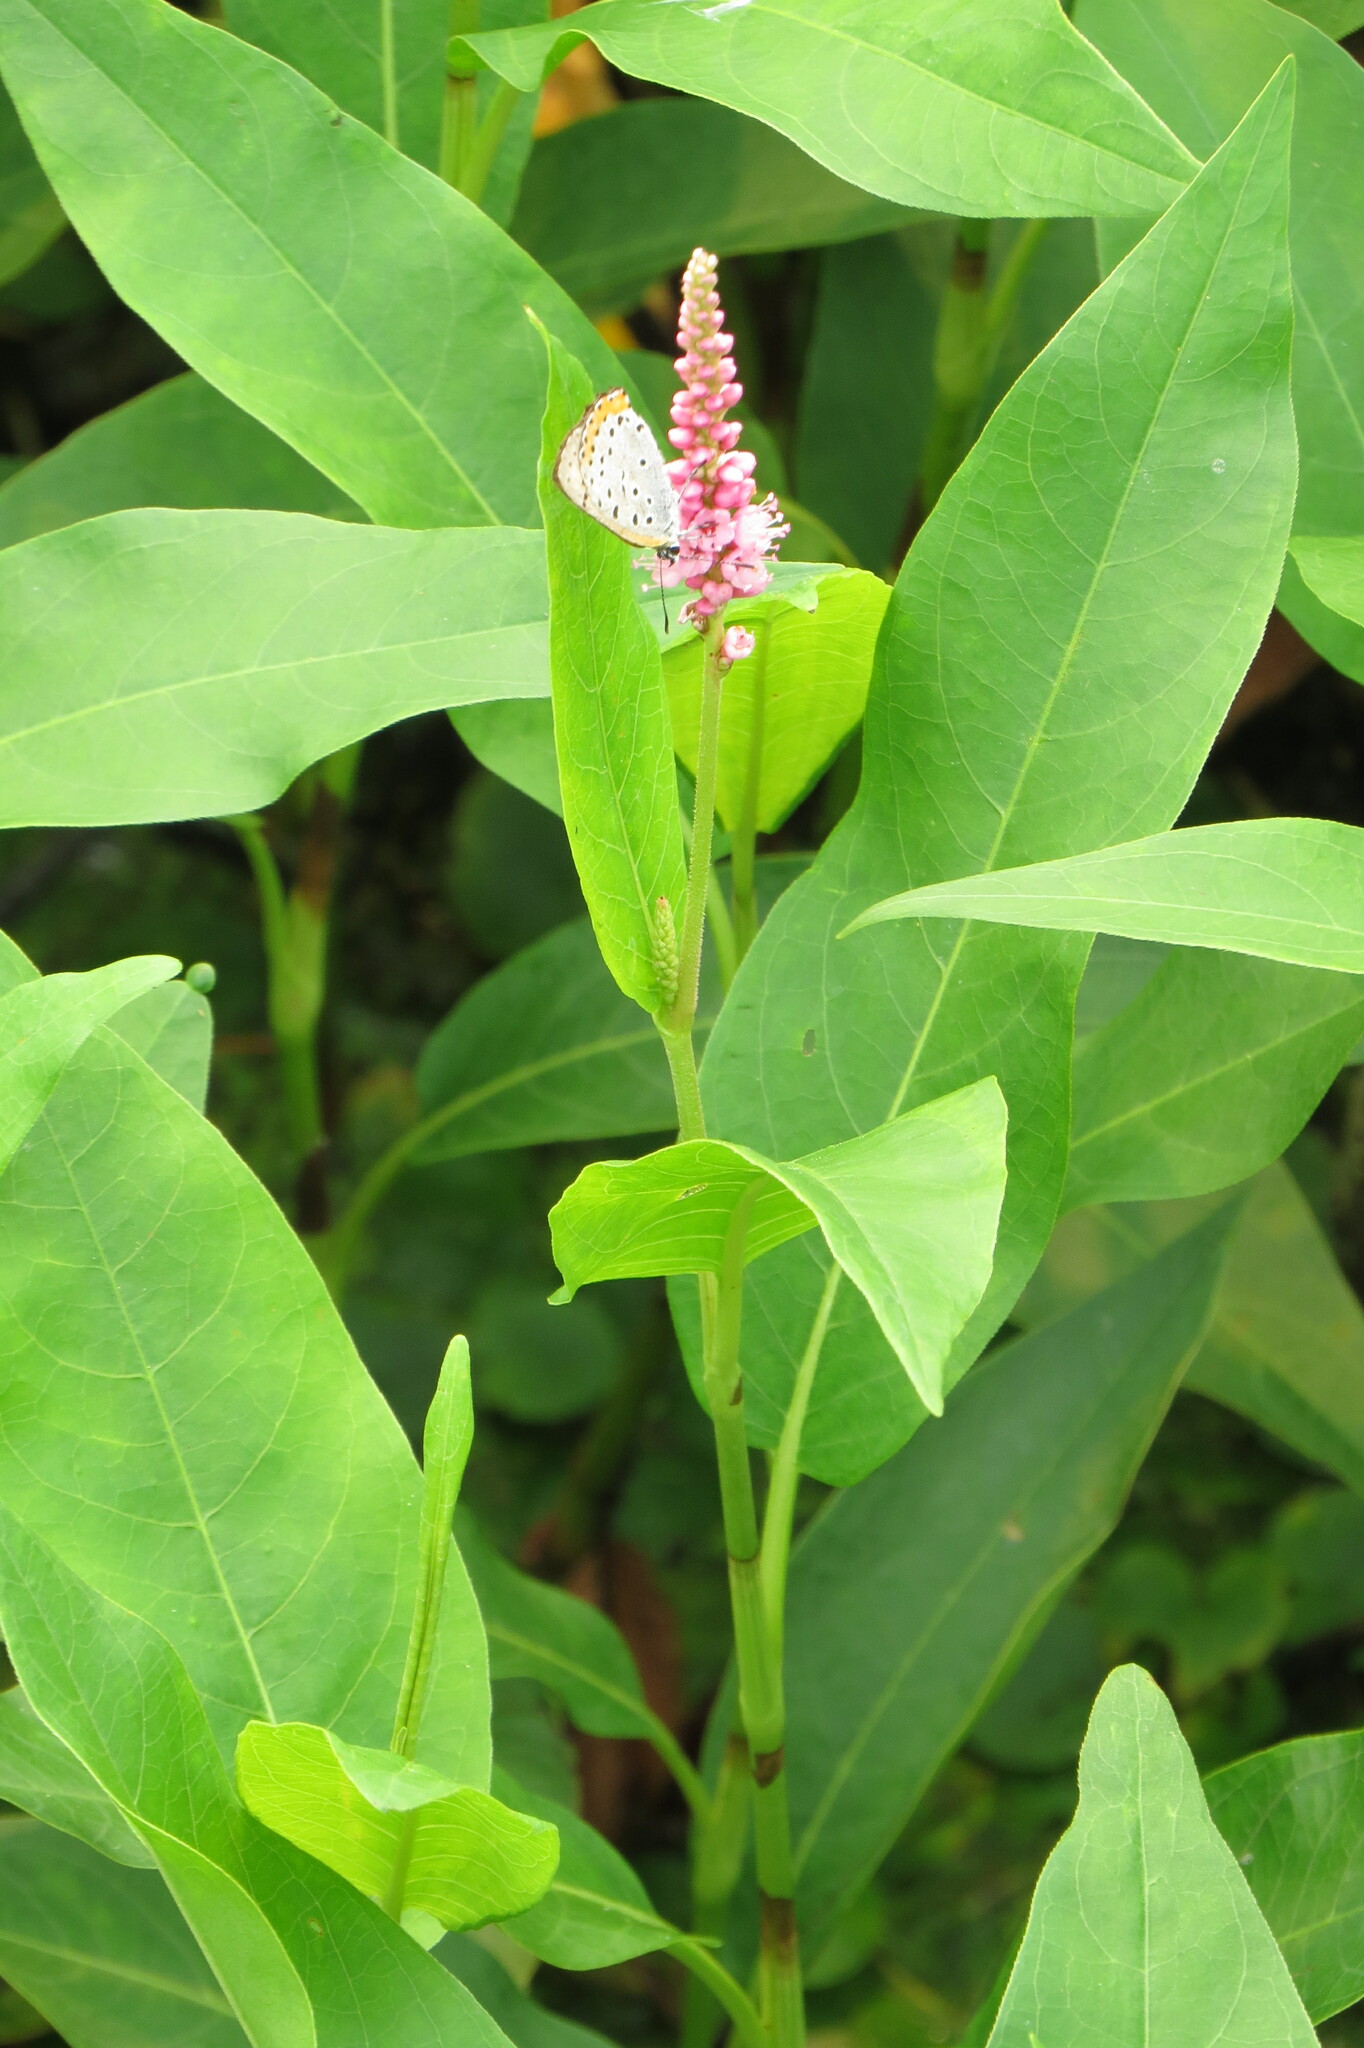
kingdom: Plantae
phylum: Tracheophyta
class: Magnoliopsida
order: Caryophyllales
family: Polygonaceae
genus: Persicaria
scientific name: Persicaria amphibia
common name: Amphibious bistort
